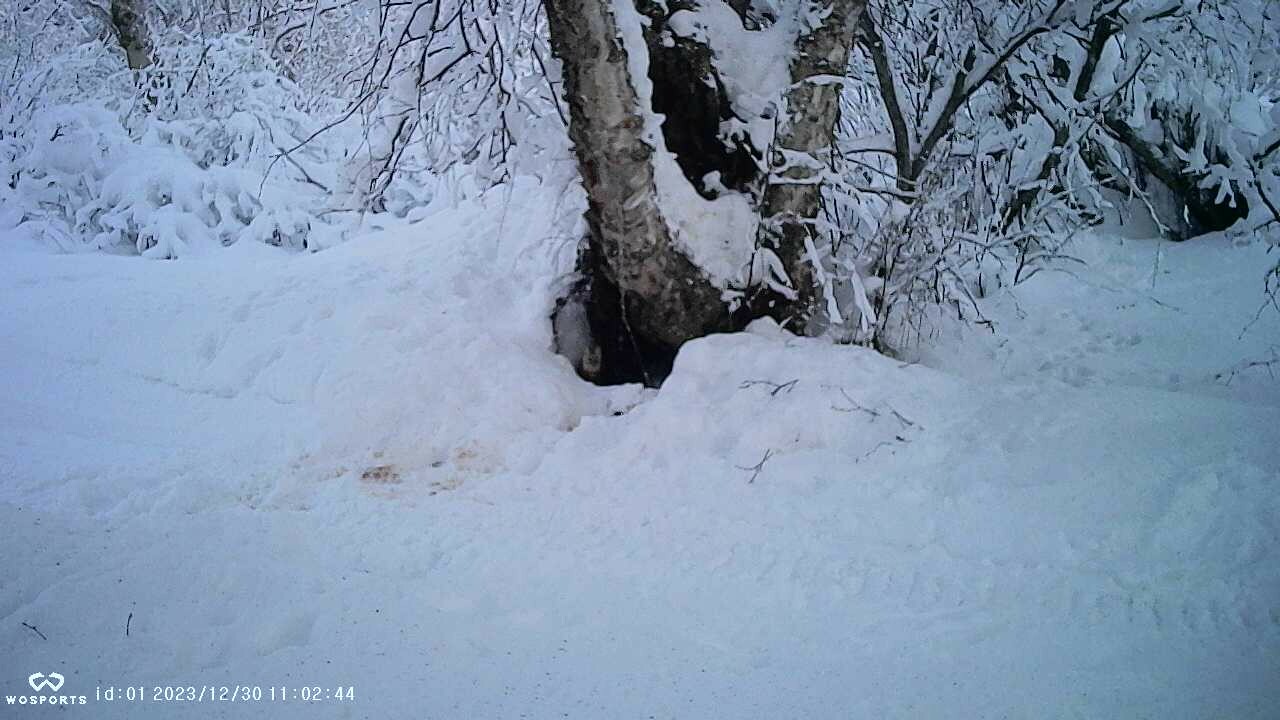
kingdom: Animalia
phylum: Chordata
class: Mammalia
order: Carnivora
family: Mustelidae
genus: Martes
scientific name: Martes americana
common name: American marten
